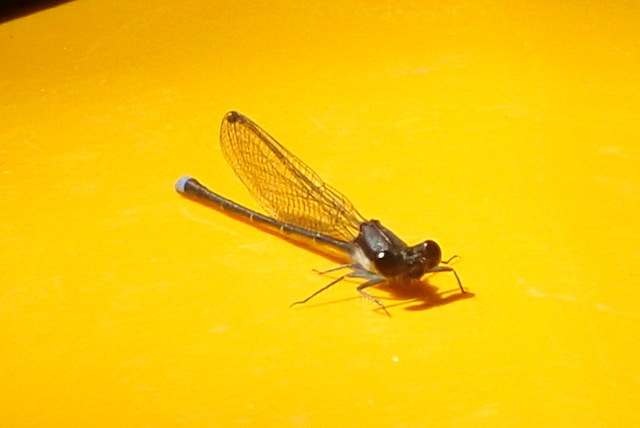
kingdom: Animalia
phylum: Arthropoda
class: Insecta
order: Odonata
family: Coenagrionidae
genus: Argia
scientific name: Argia tibialis
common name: Blue-tipped dancer
